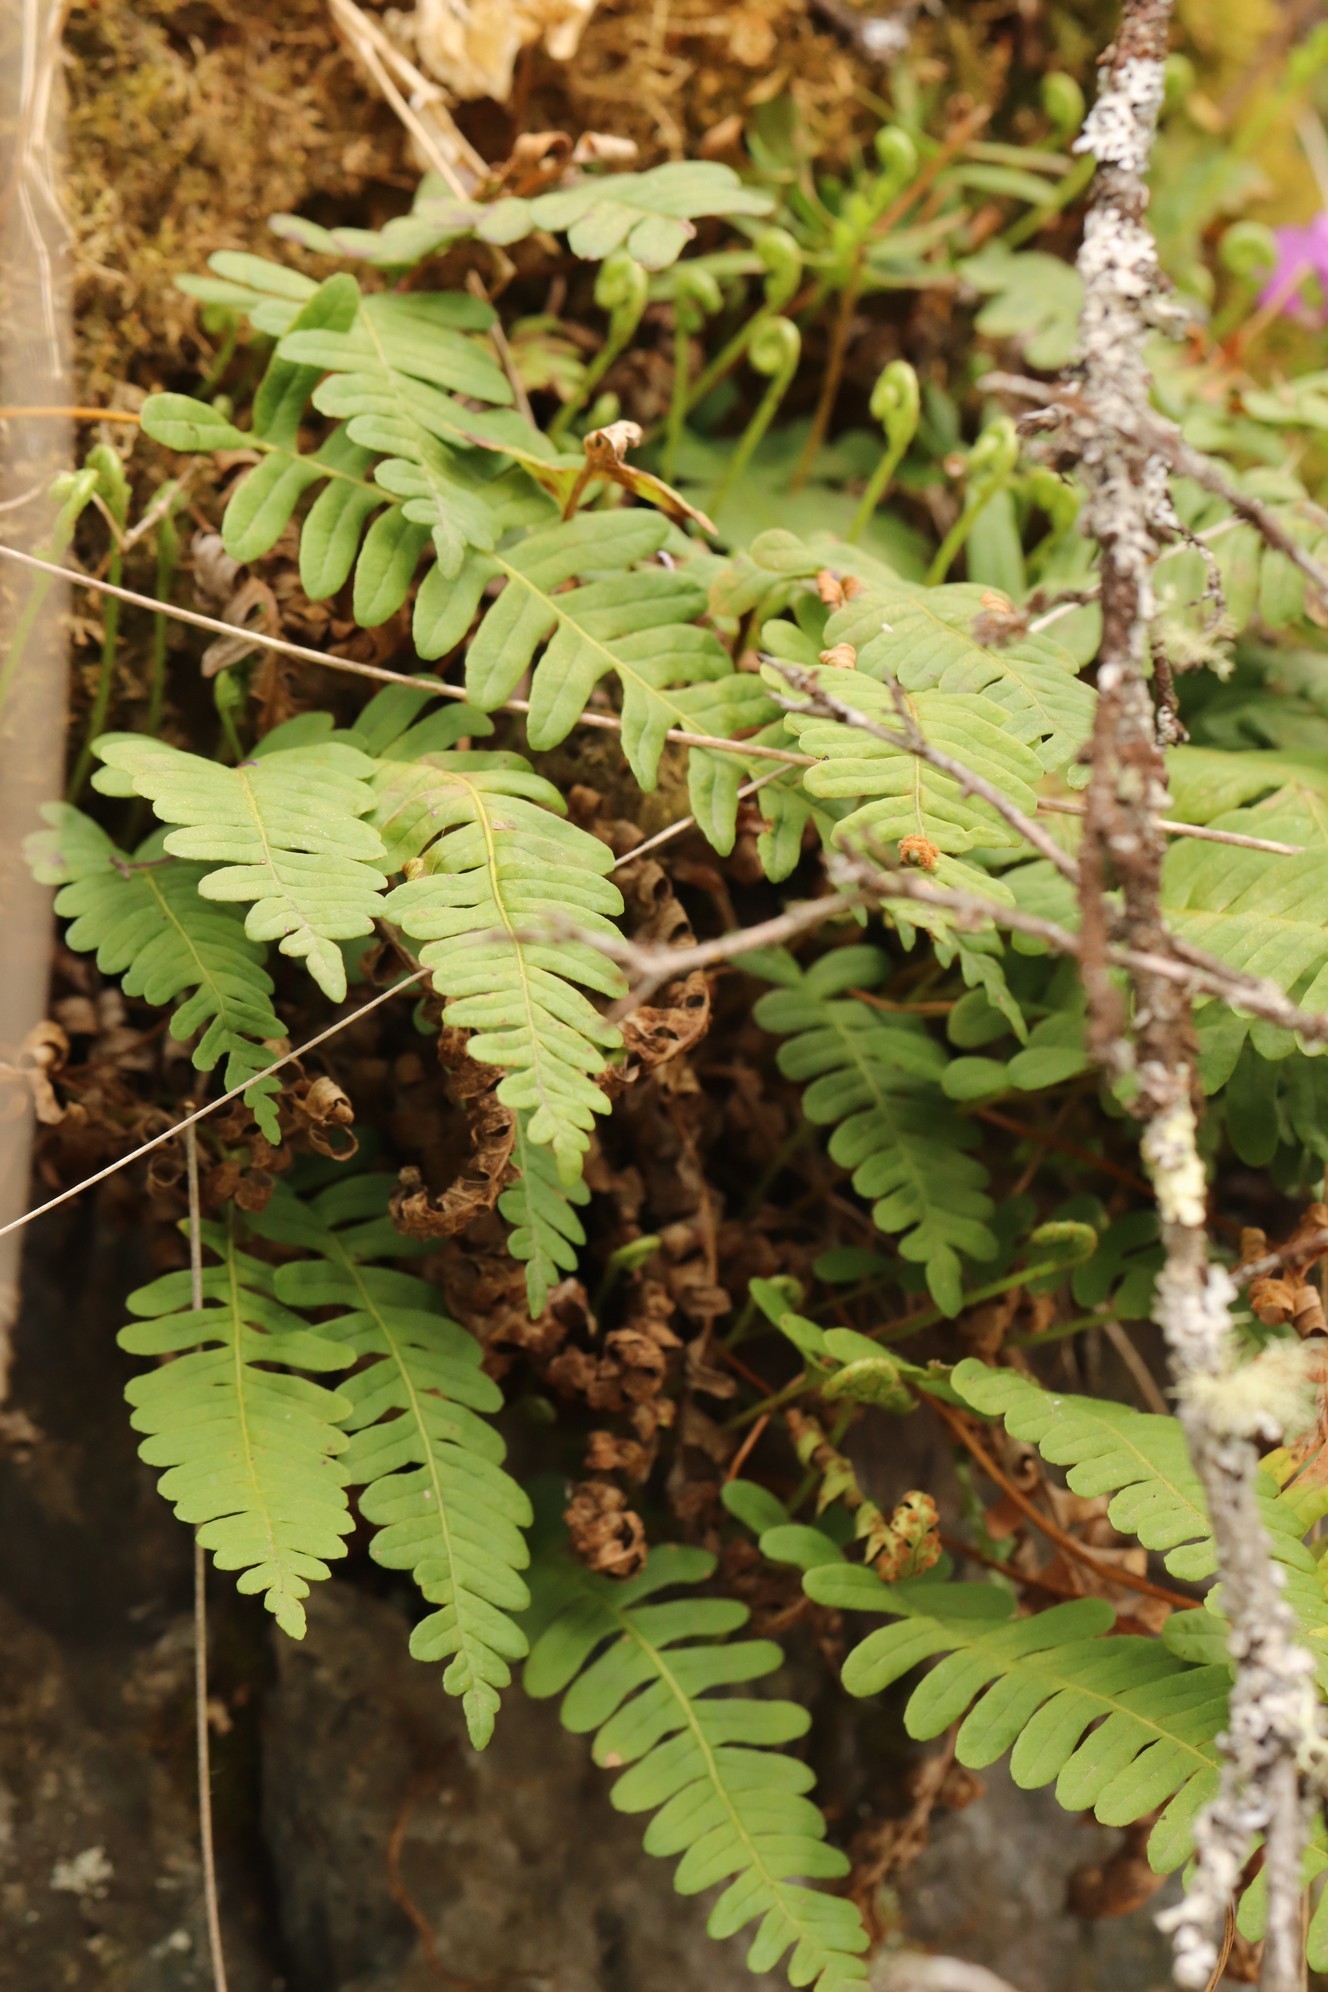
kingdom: Plantae
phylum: Tracheophyta
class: Polypodiopsida
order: Polypodiales
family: Polypodiaceae
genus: Polypodium
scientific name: Polypodium vulgare
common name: Common polypody
